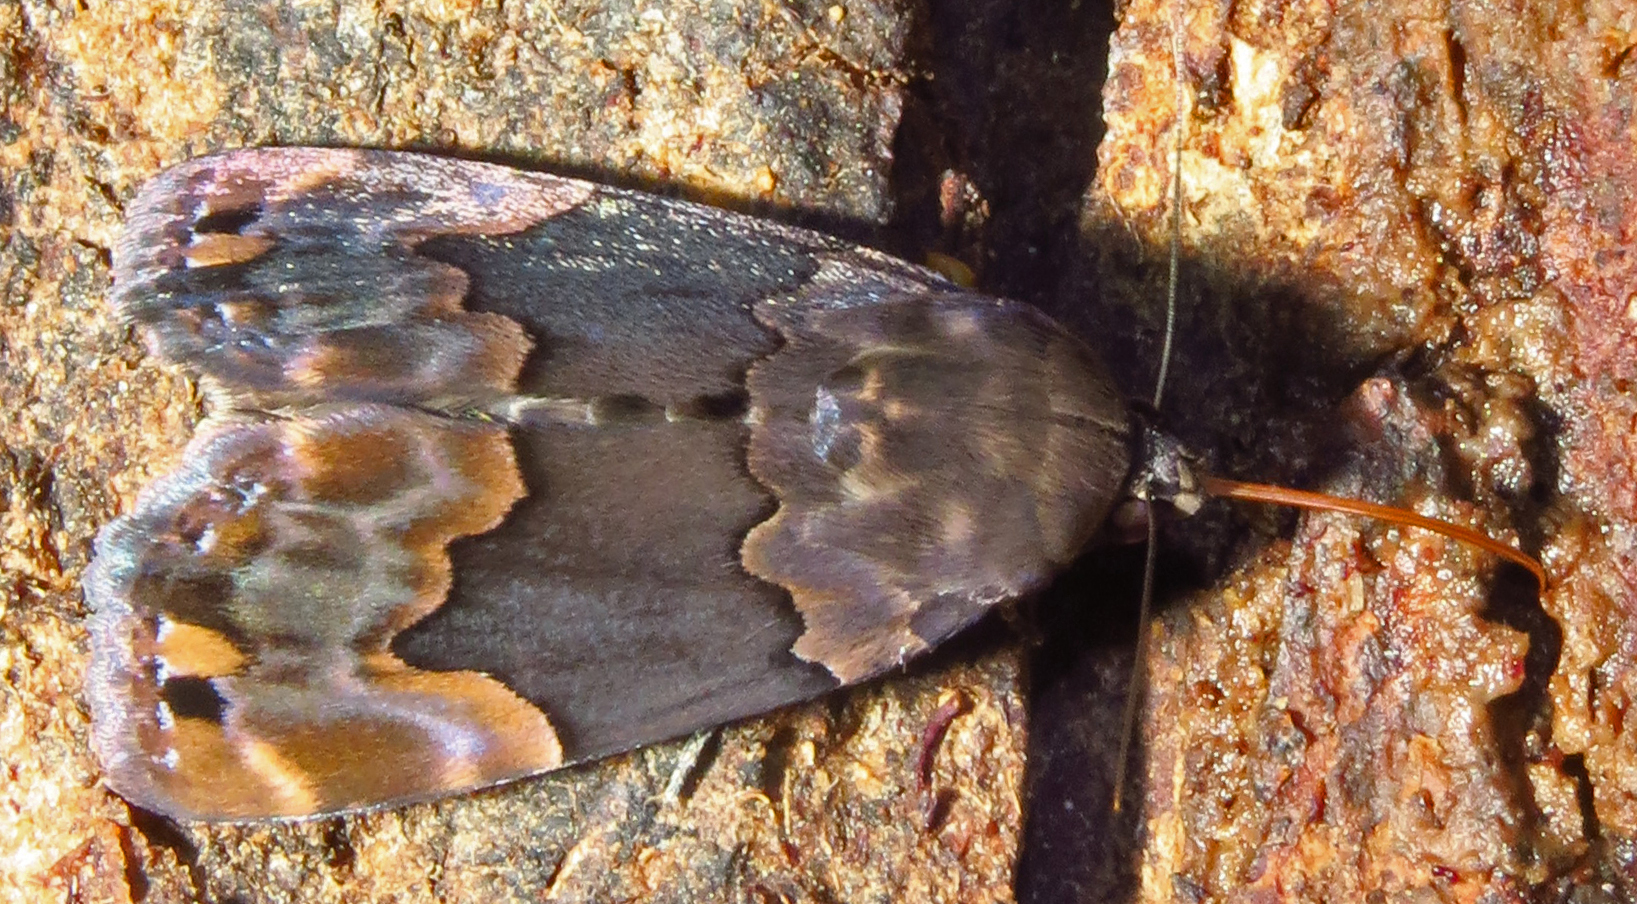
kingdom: Animalia
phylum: Arthropoda
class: Insecta
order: Lepidoptera
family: Erebidae
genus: Dinumma
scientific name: Dinumma deponens
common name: Purplish moth
